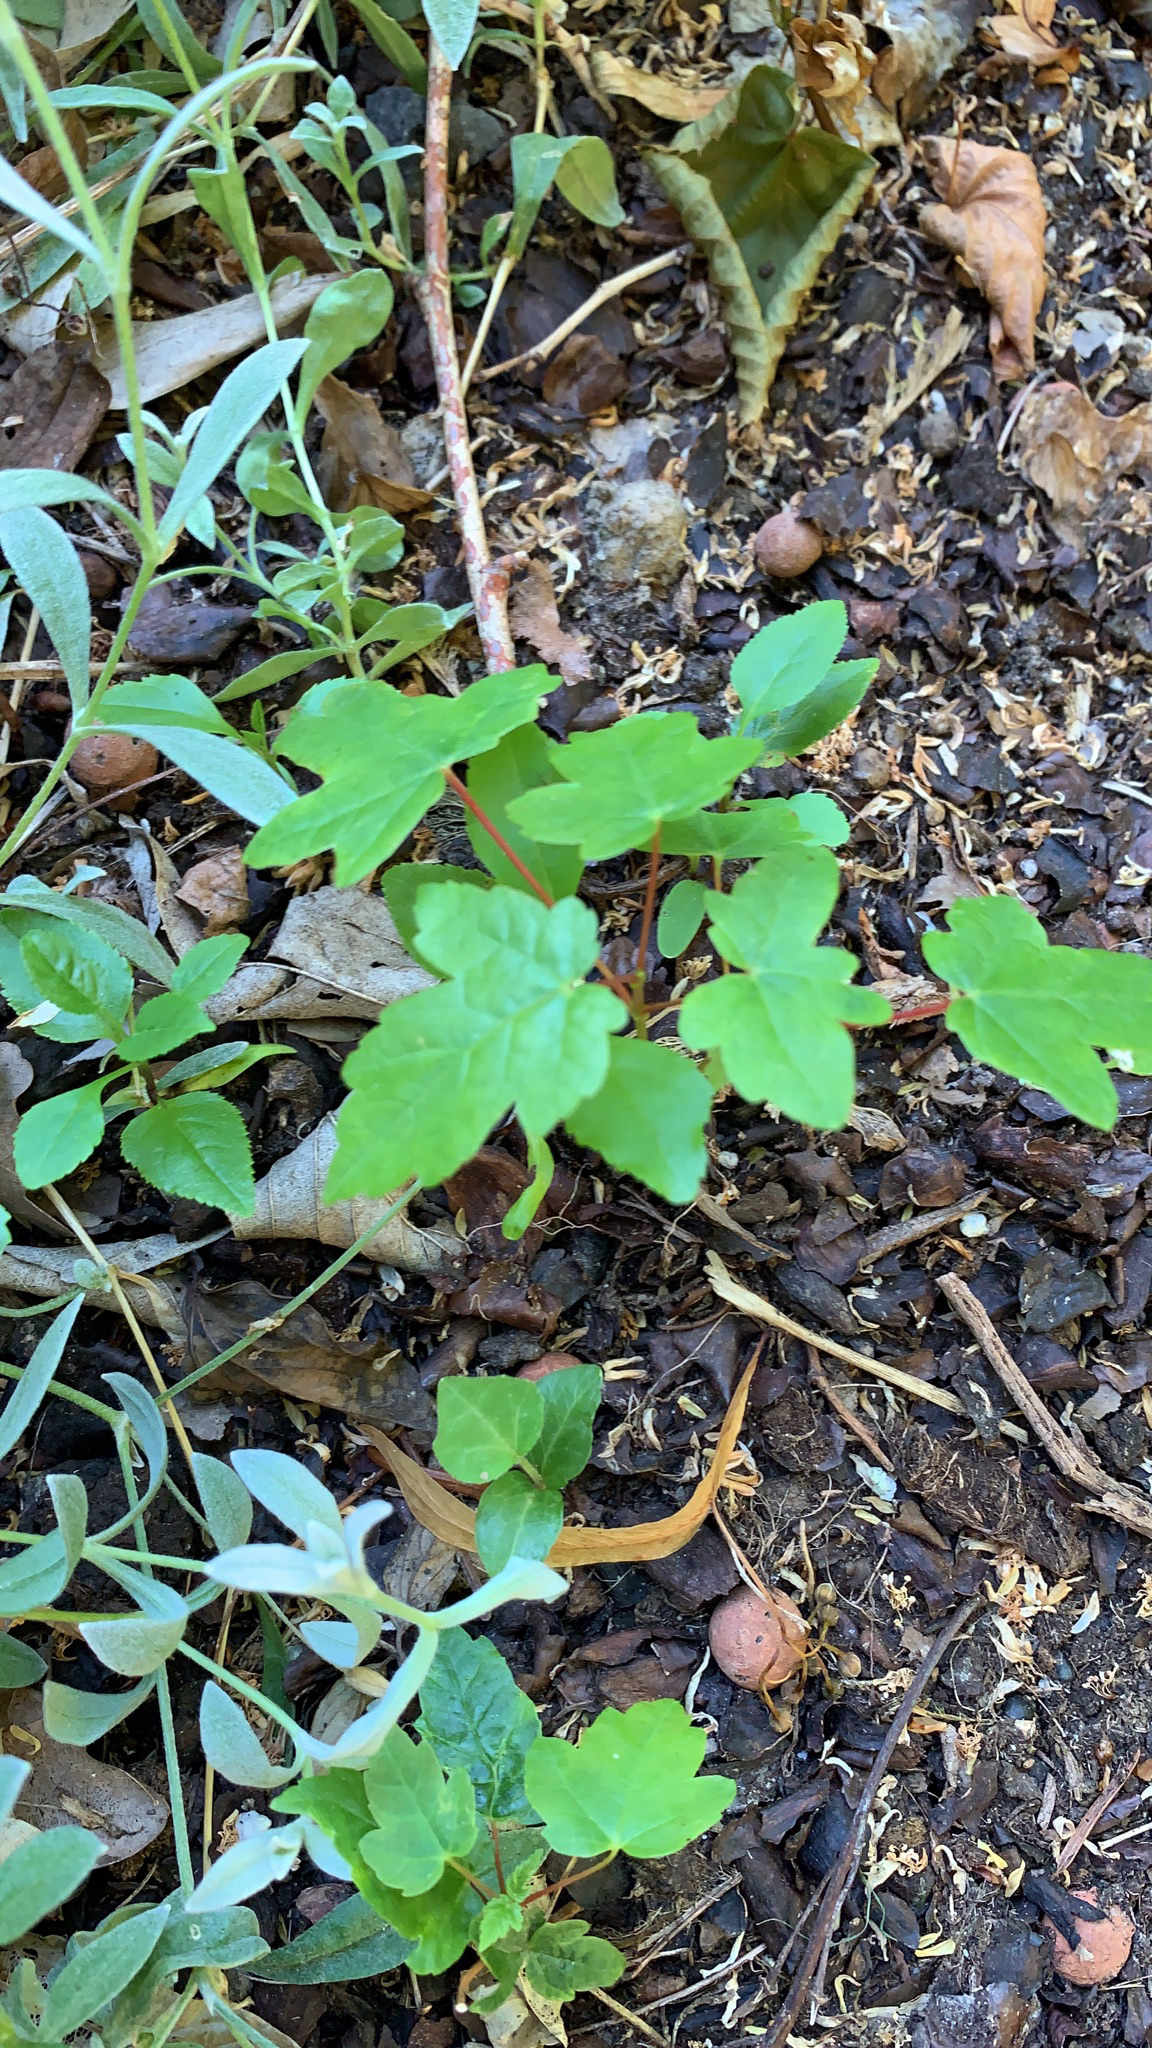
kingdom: Plantae
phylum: Tracheophyta
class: Magnoliopsida
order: Sapindales
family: Sapindaceae
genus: Acer
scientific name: Acer pseudoplatanus
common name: Sycamore
